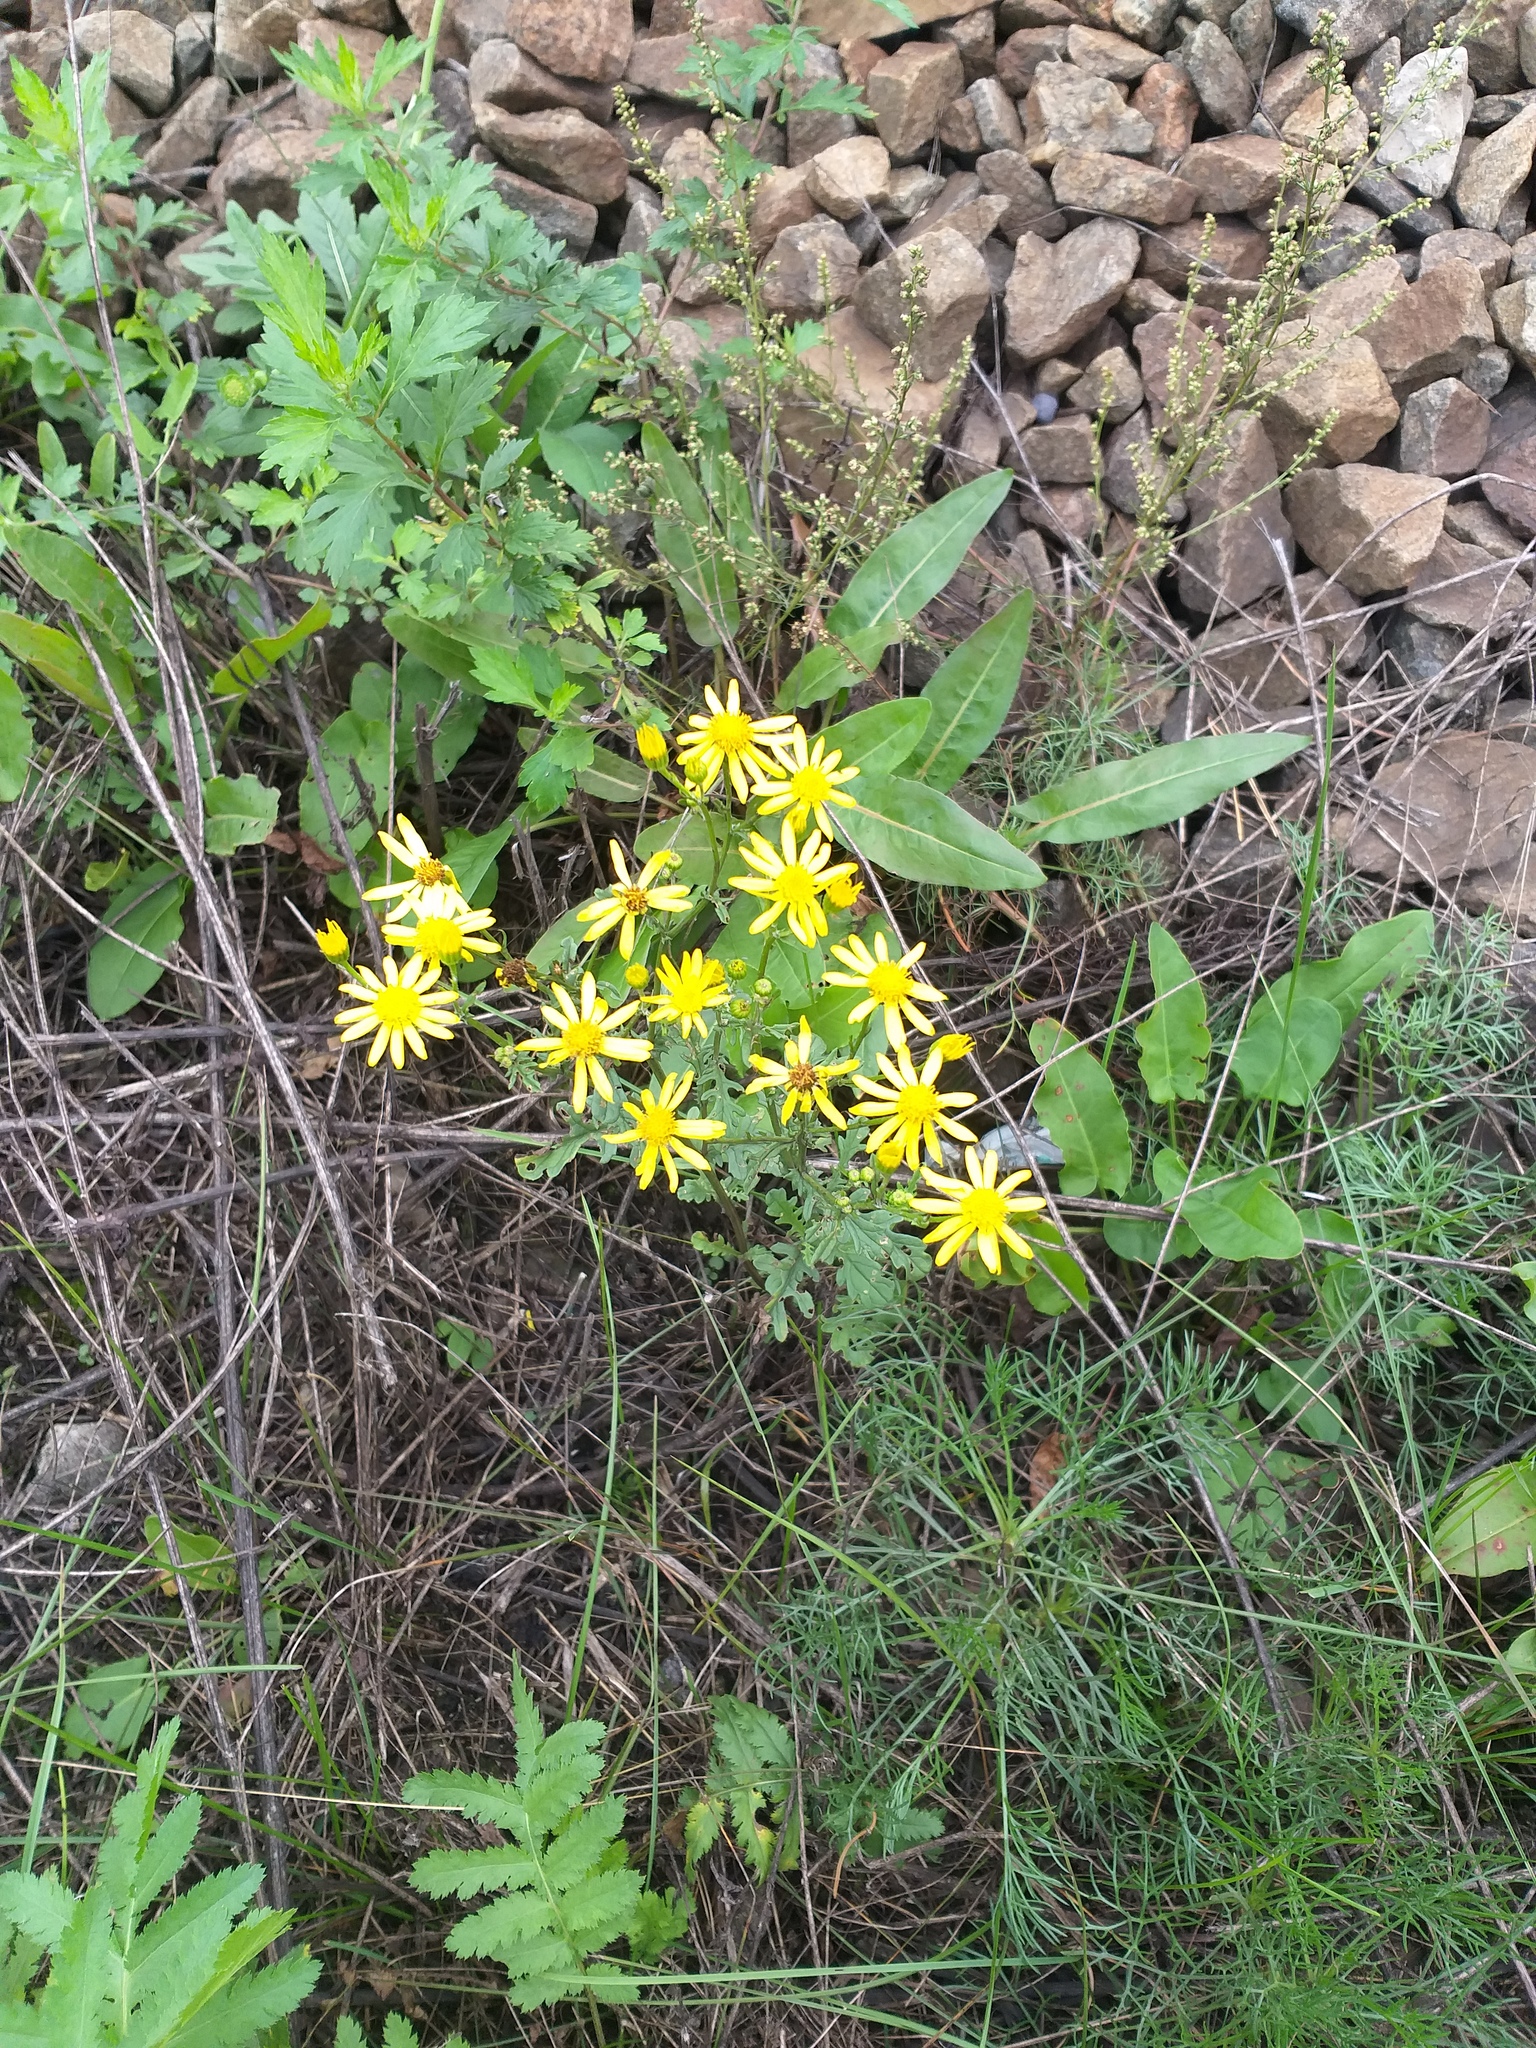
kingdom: Plantae
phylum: Tracheophyta
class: Magnoliopsida
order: Asterales
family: Asteraceae
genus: Jacobaea
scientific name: Jacobaea vulgaris
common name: Stinking willie
